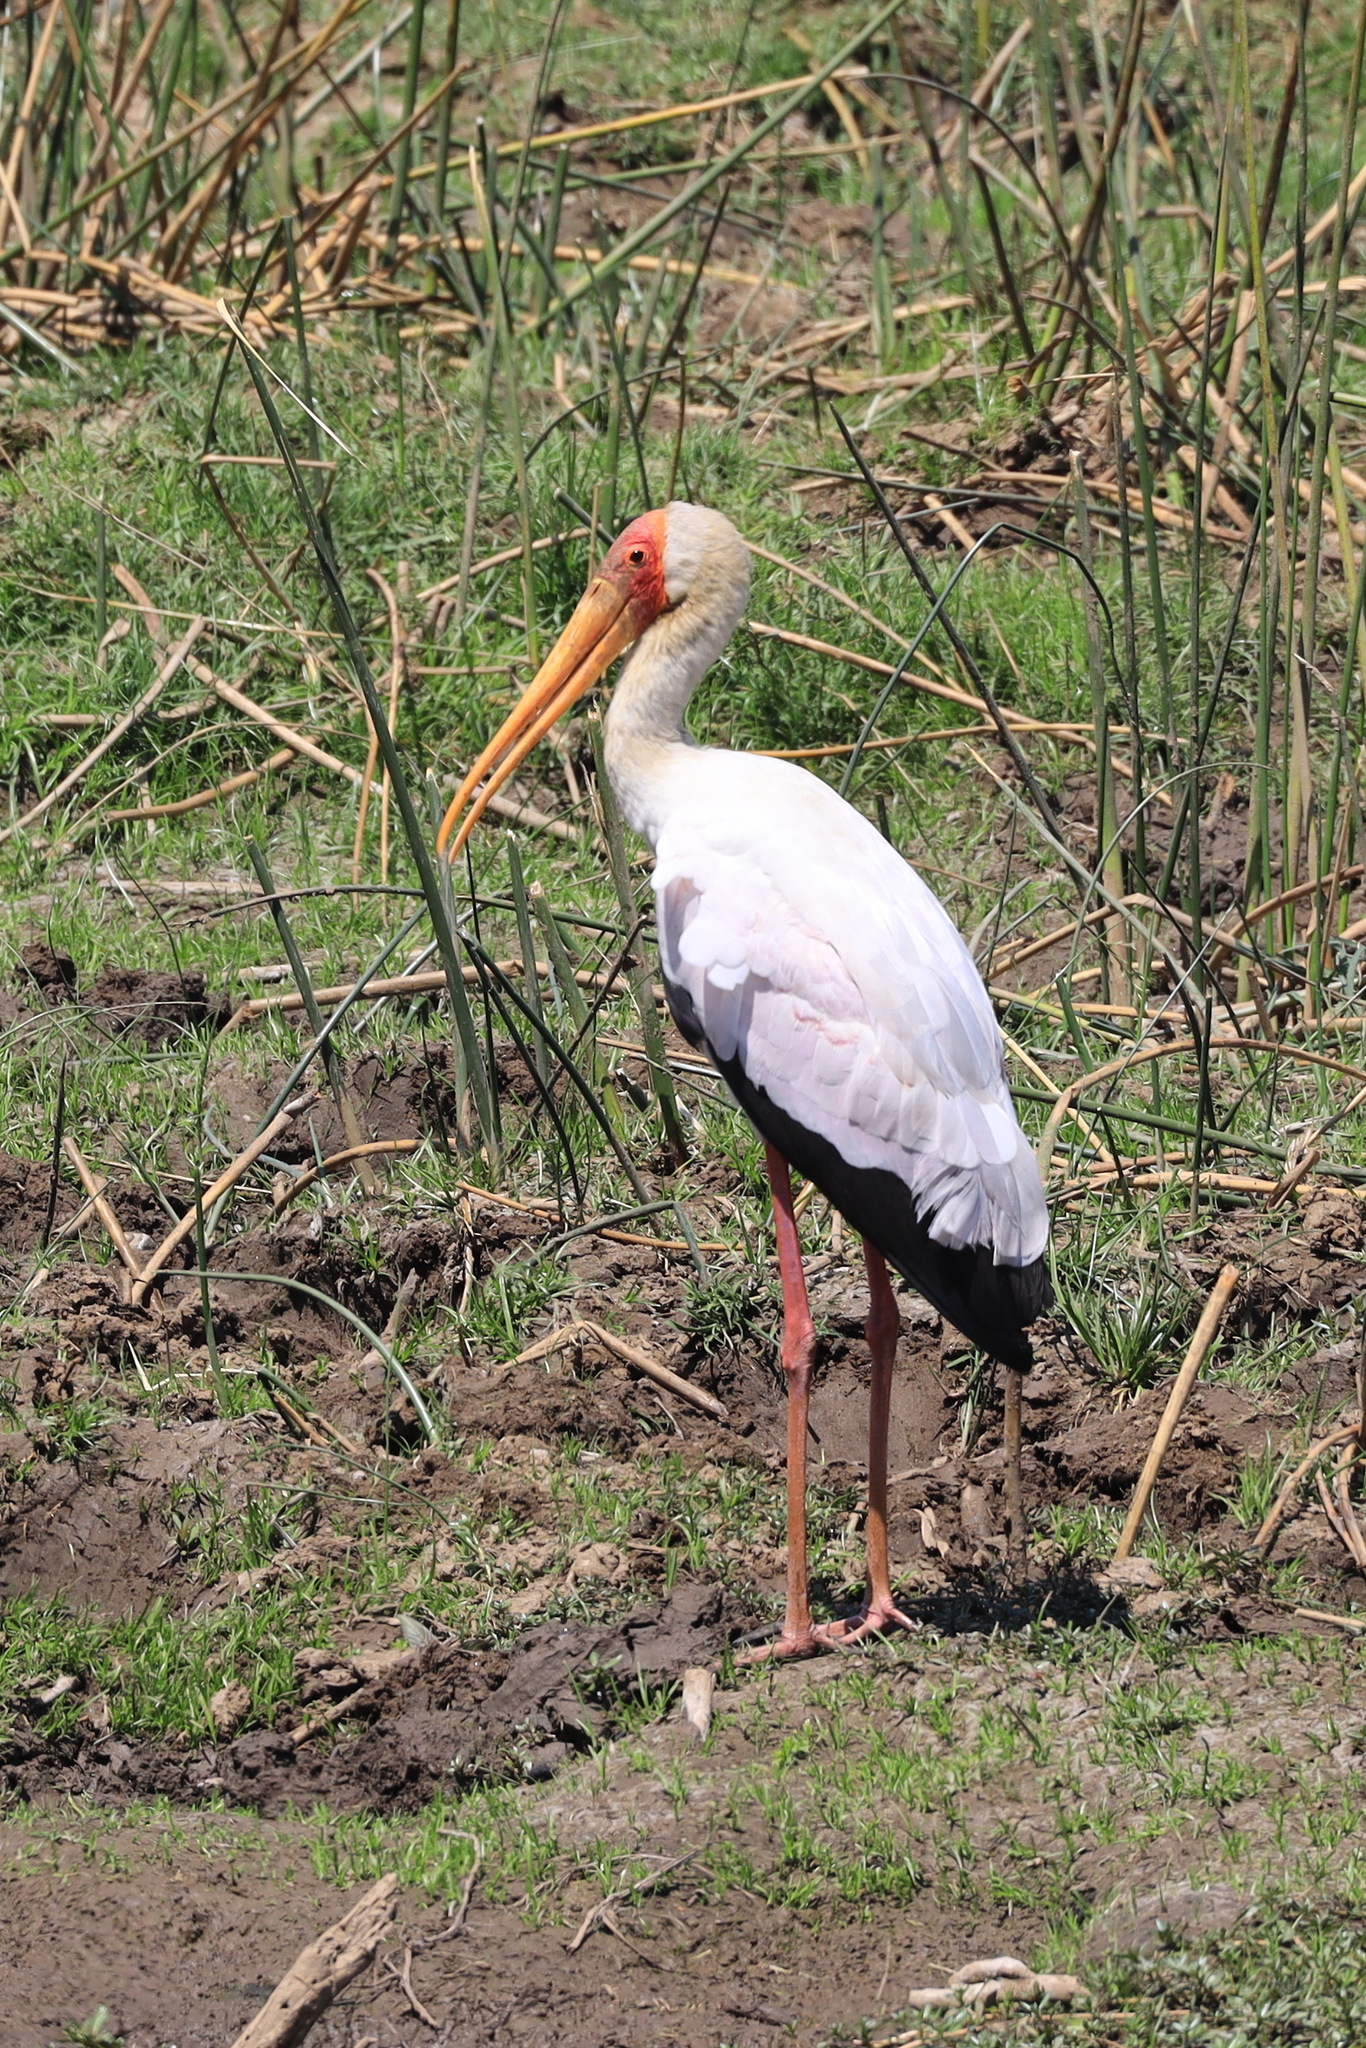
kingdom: Animalia
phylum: Chordata
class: Aves
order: Ciconiiformes
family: Ciconiidae
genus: Mycteria
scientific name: Mycteria ibis
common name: Yellow-billed stork
